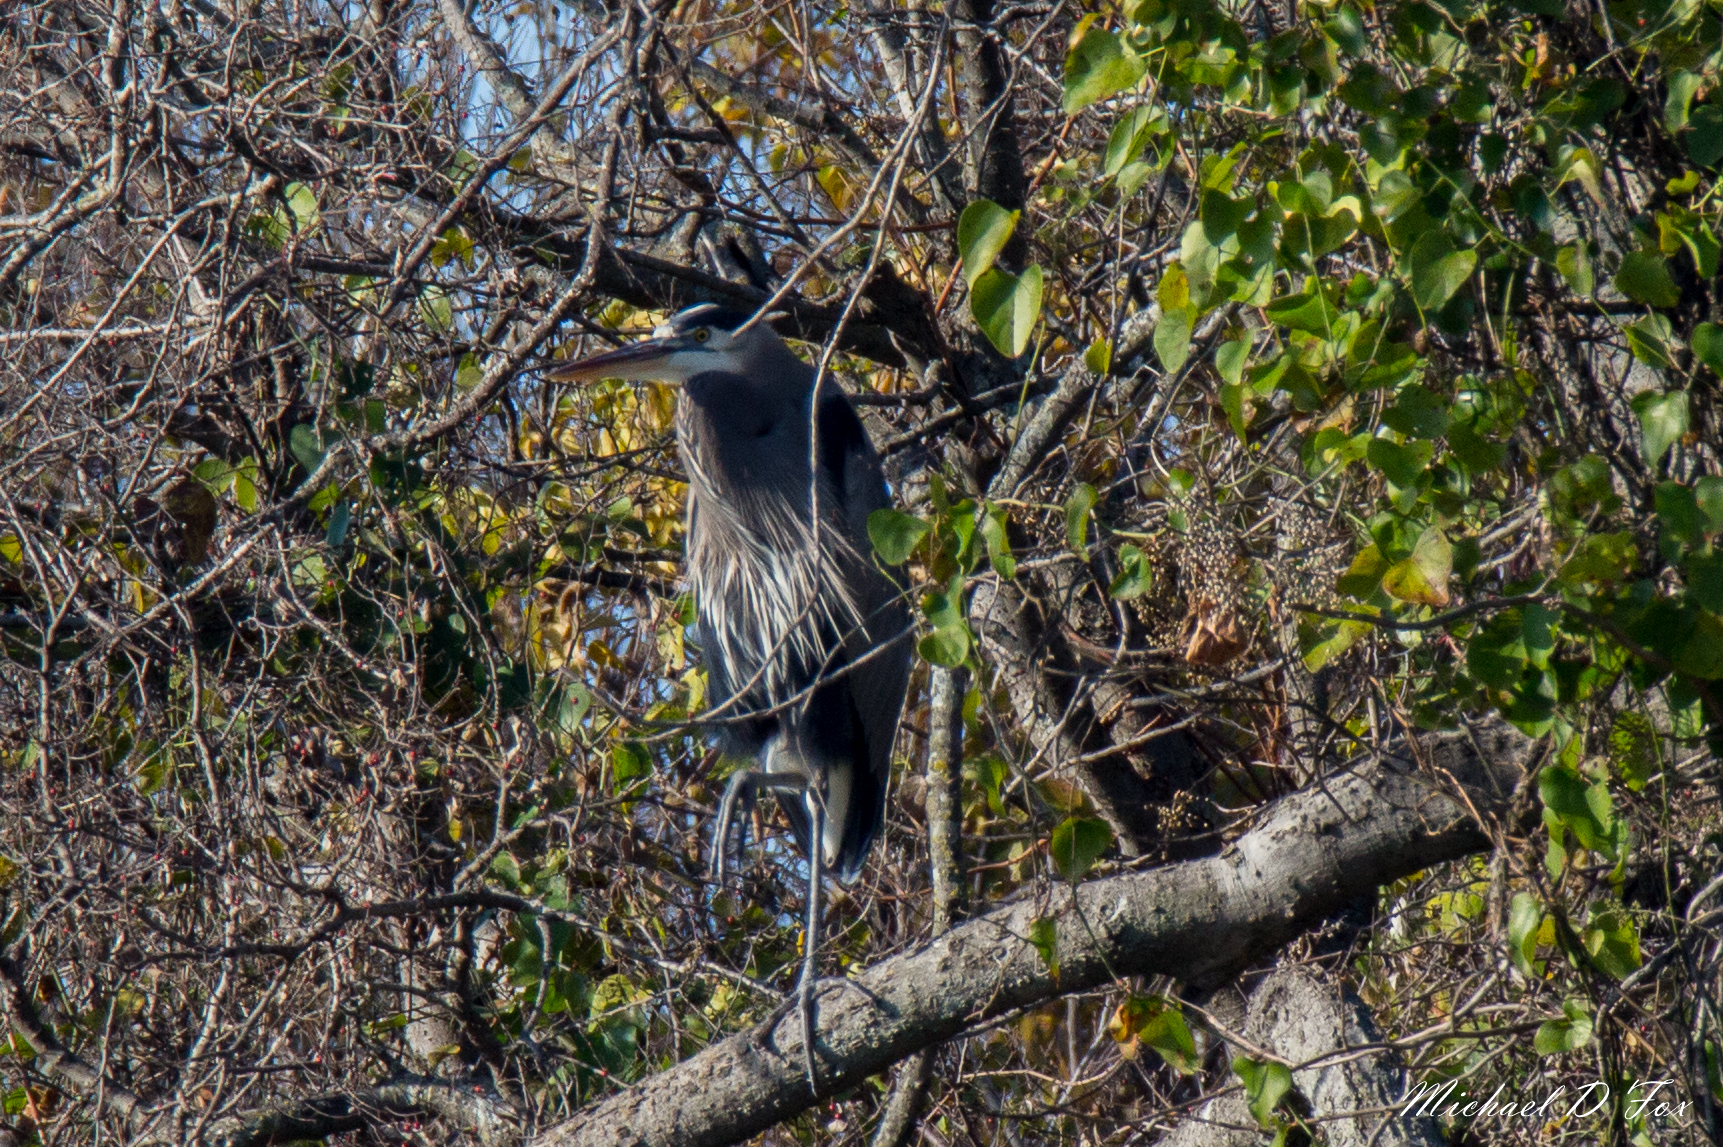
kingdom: Animalia
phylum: Chordata
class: Aves
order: Pelecaniformes
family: Ardeidae
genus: Ardea
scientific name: Ardea herodias
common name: Great blue heron
